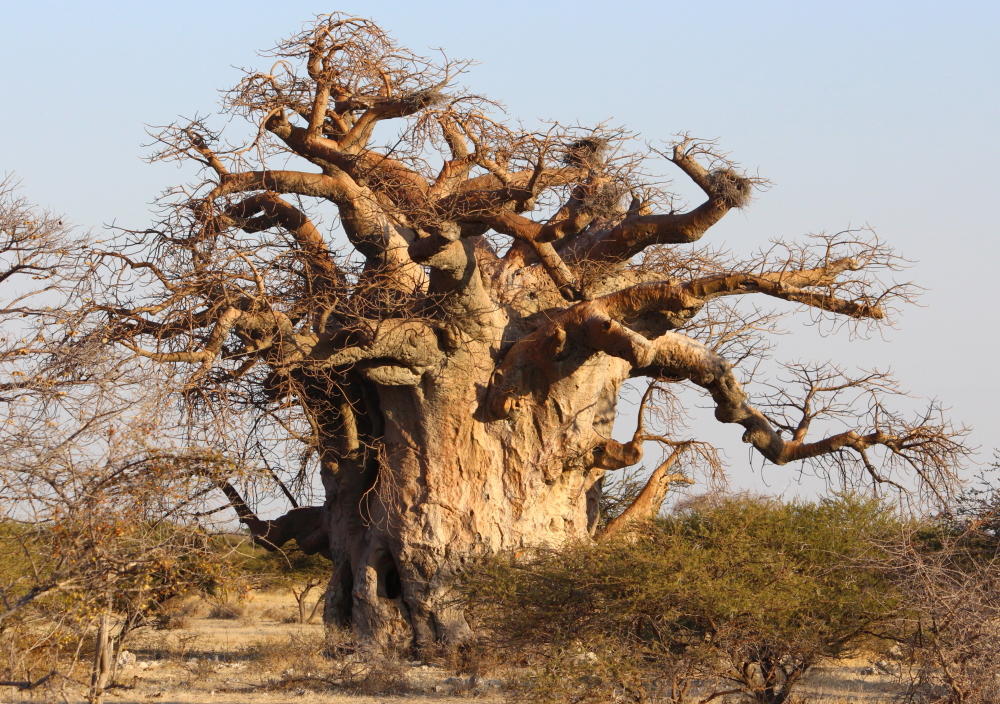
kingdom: Plantae
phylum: Tracheophyta
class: Magnoliopsida
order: Malvales
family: Malvaceae
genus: Adansonia
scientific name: Adansonia digitata
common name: Dead-rat-tree
